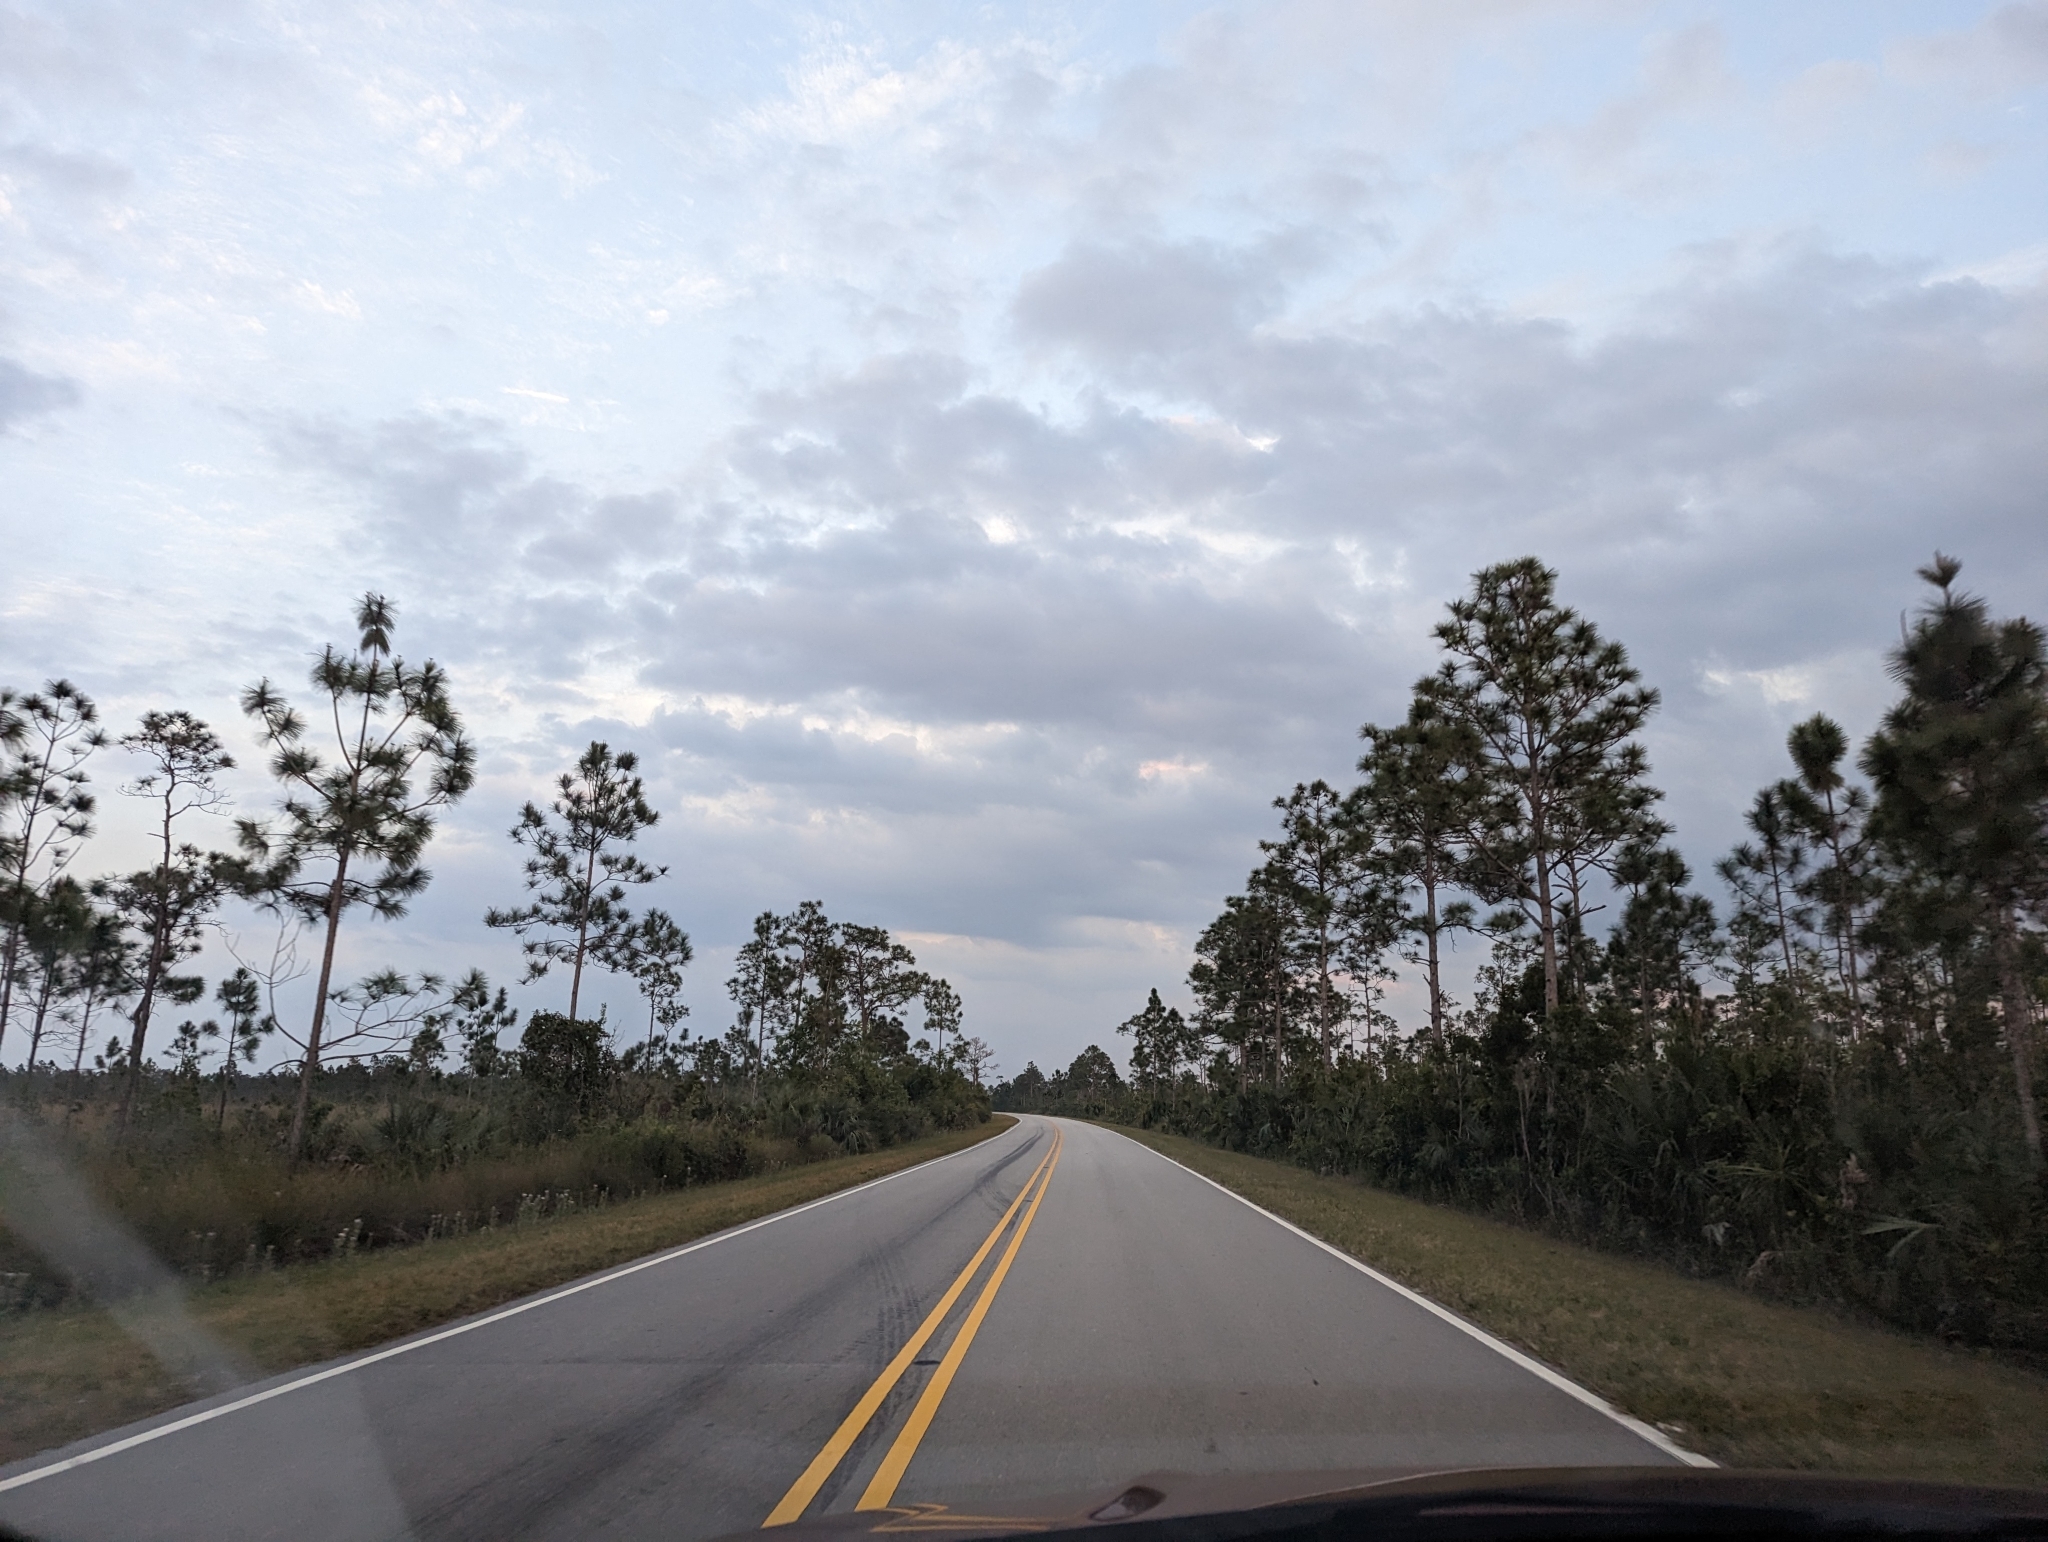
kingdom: Plantae
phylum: Tracheophyta
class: Pinopsida
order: Pinales
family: Pinaceae
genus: Pinus
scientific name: Pinus elliottii
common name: Slash pine
